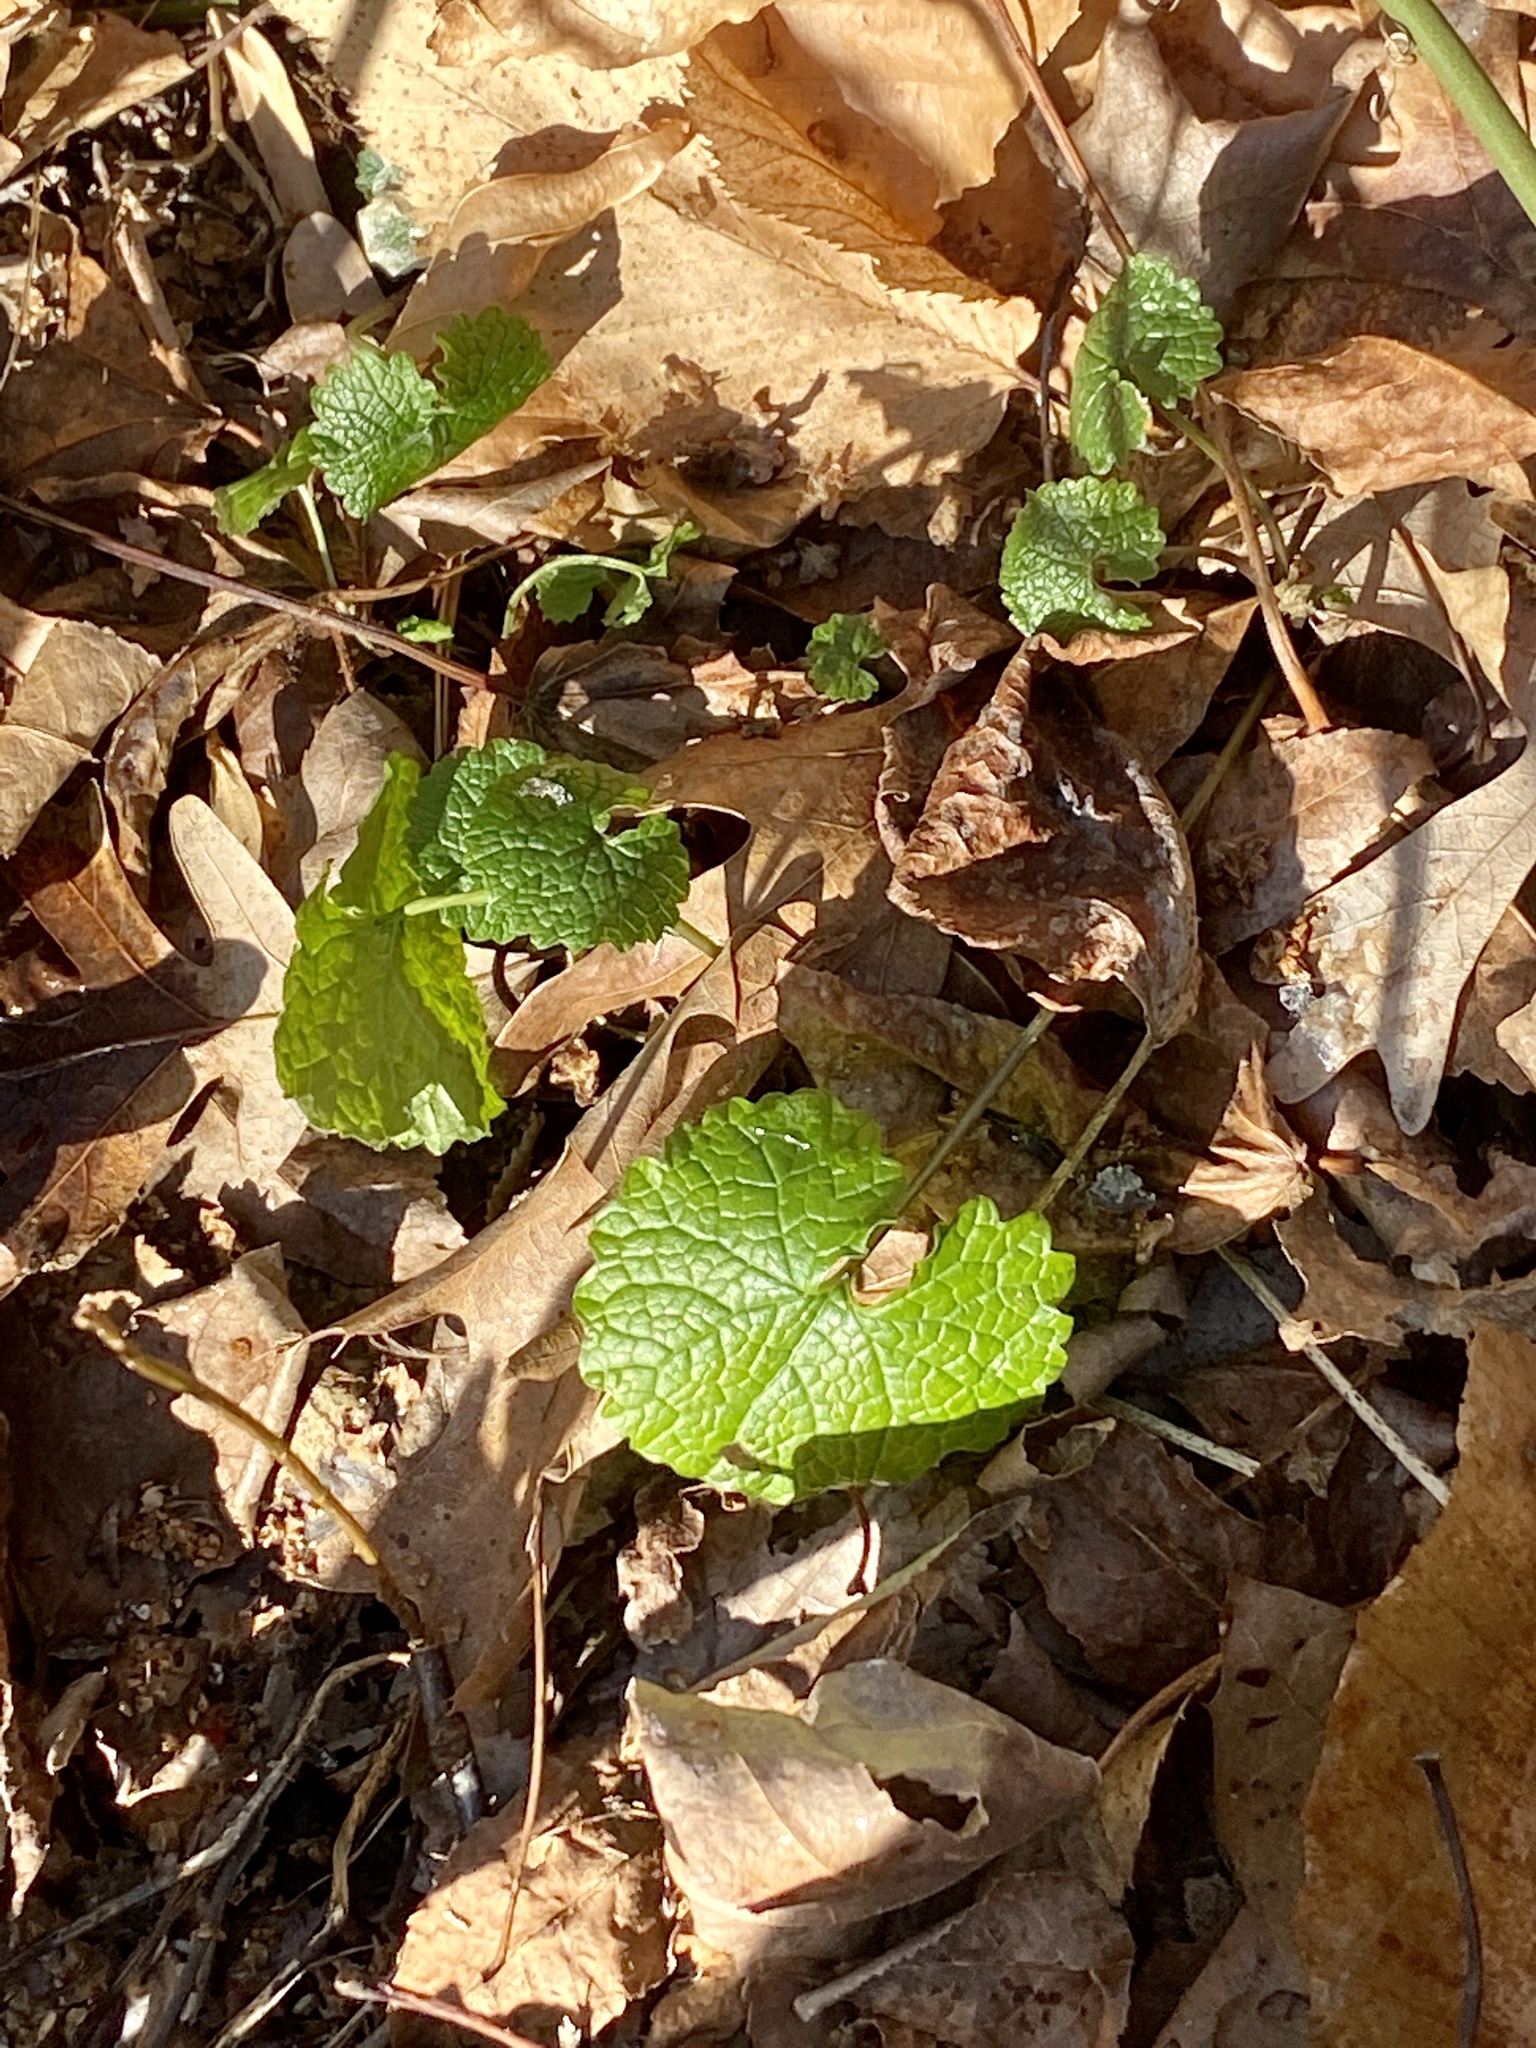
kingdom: Plantae
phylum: Tracheophyta
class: Magnoliopsida
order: Brassicales
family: Brassicaceae
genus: Alliaria
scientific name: Alliaria petiolata
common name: Garlic mustard
